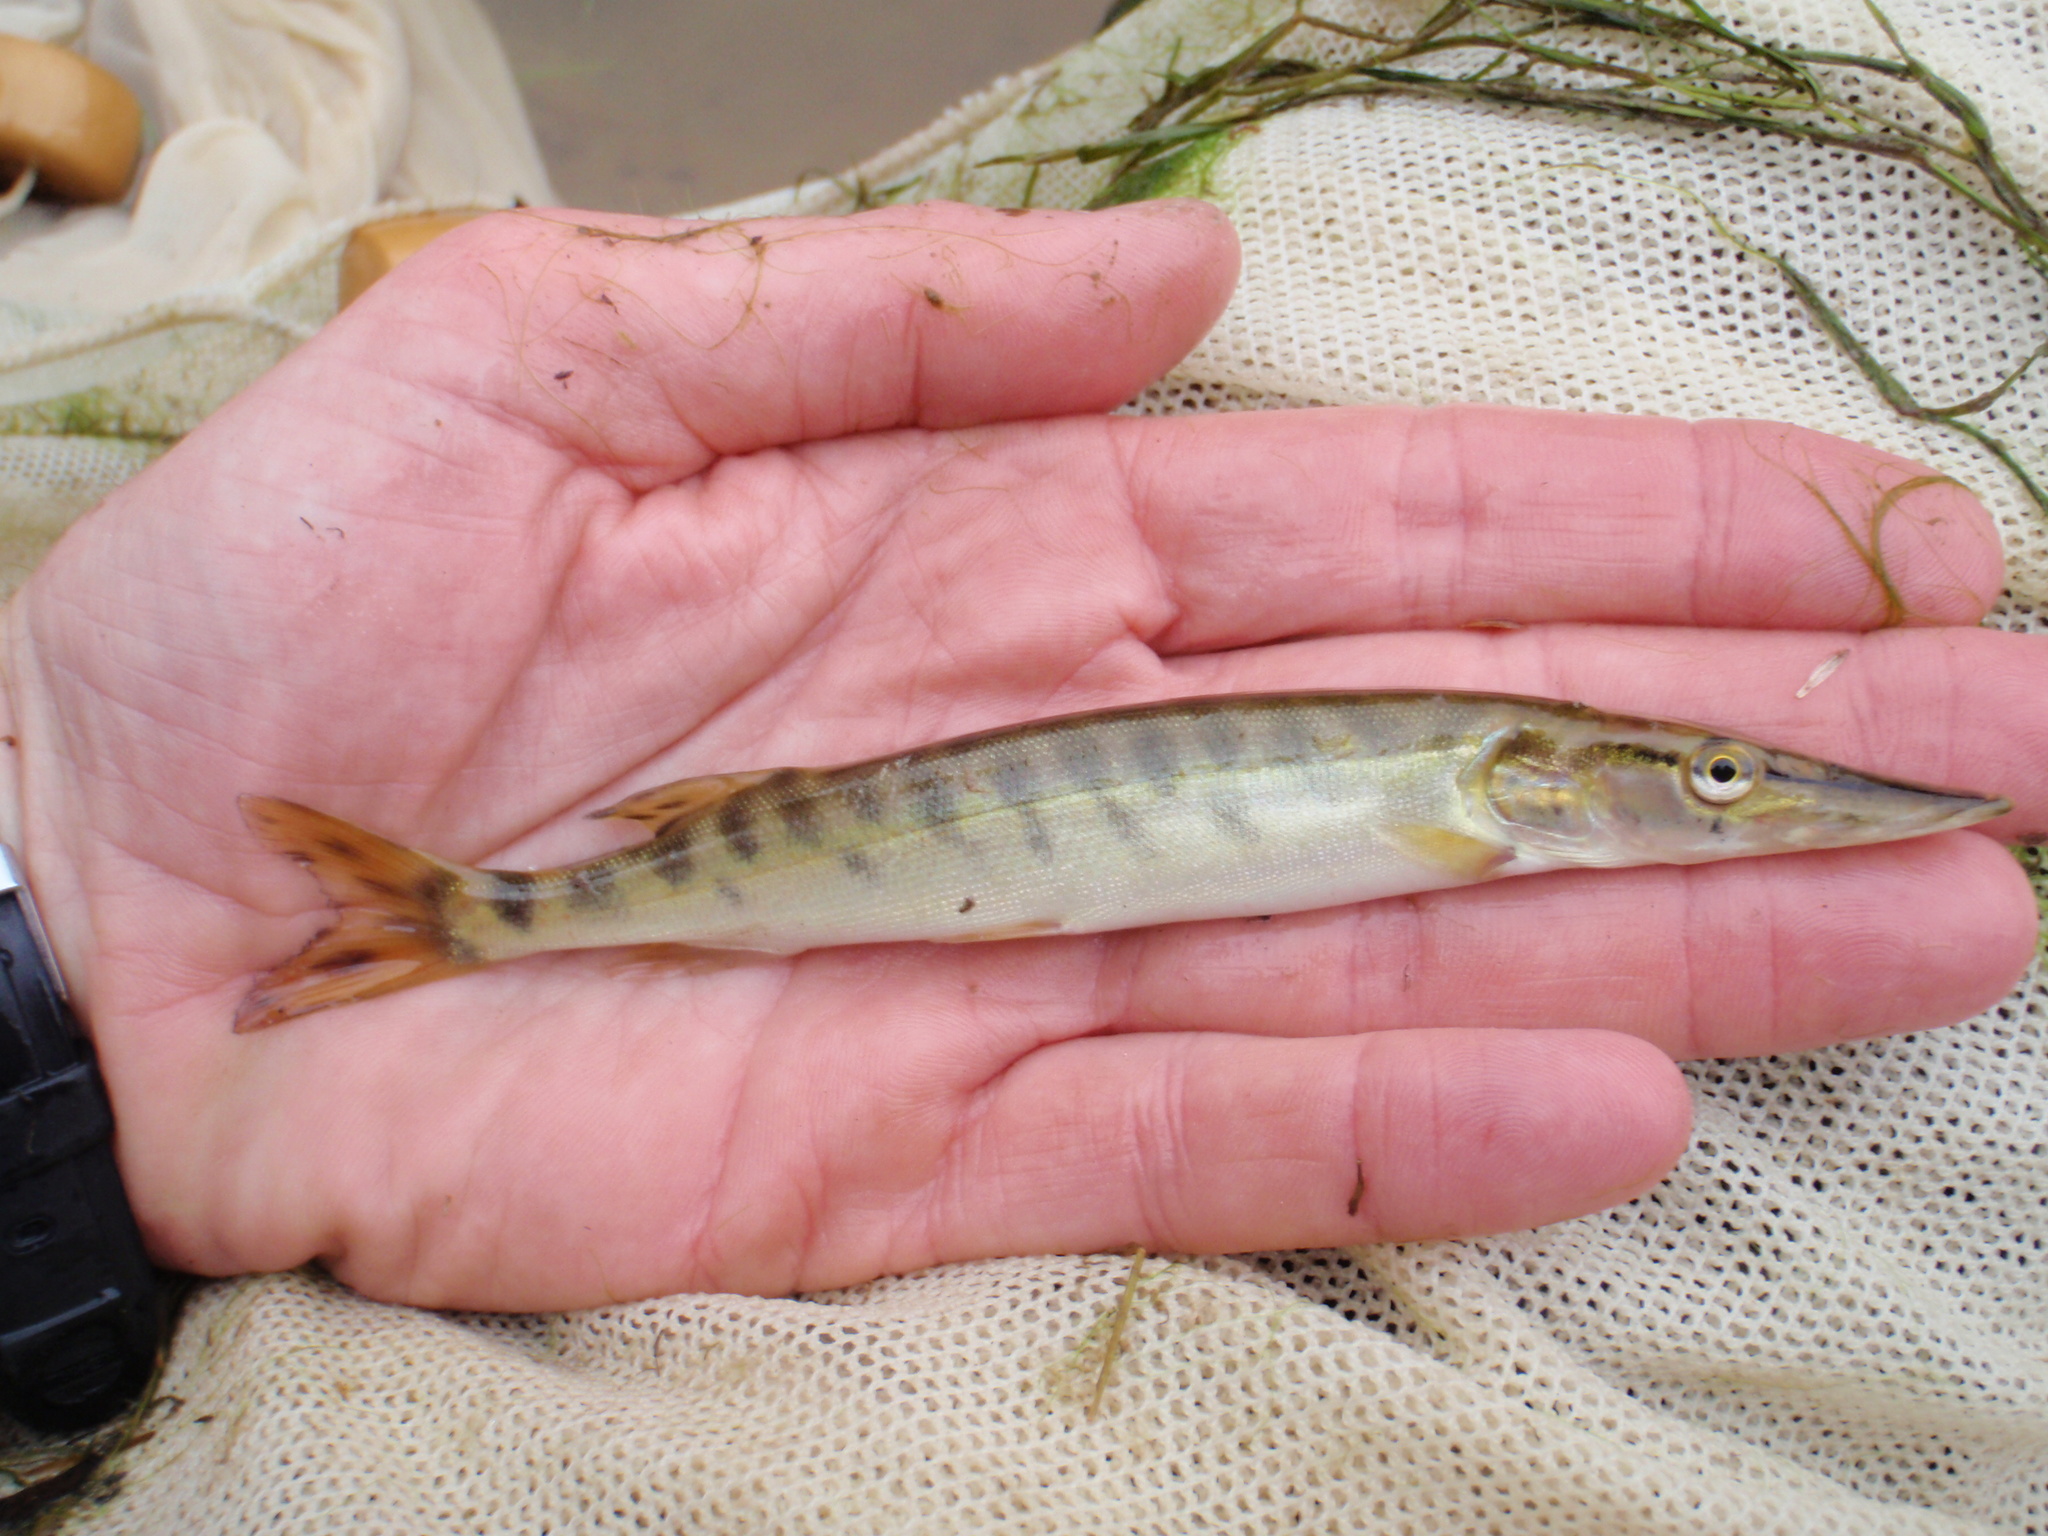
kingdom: Animalia
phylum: Chordata
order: Esociformes
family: Esocidae
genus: Esox
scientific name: Esox masquinongy
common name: Muskellunge
